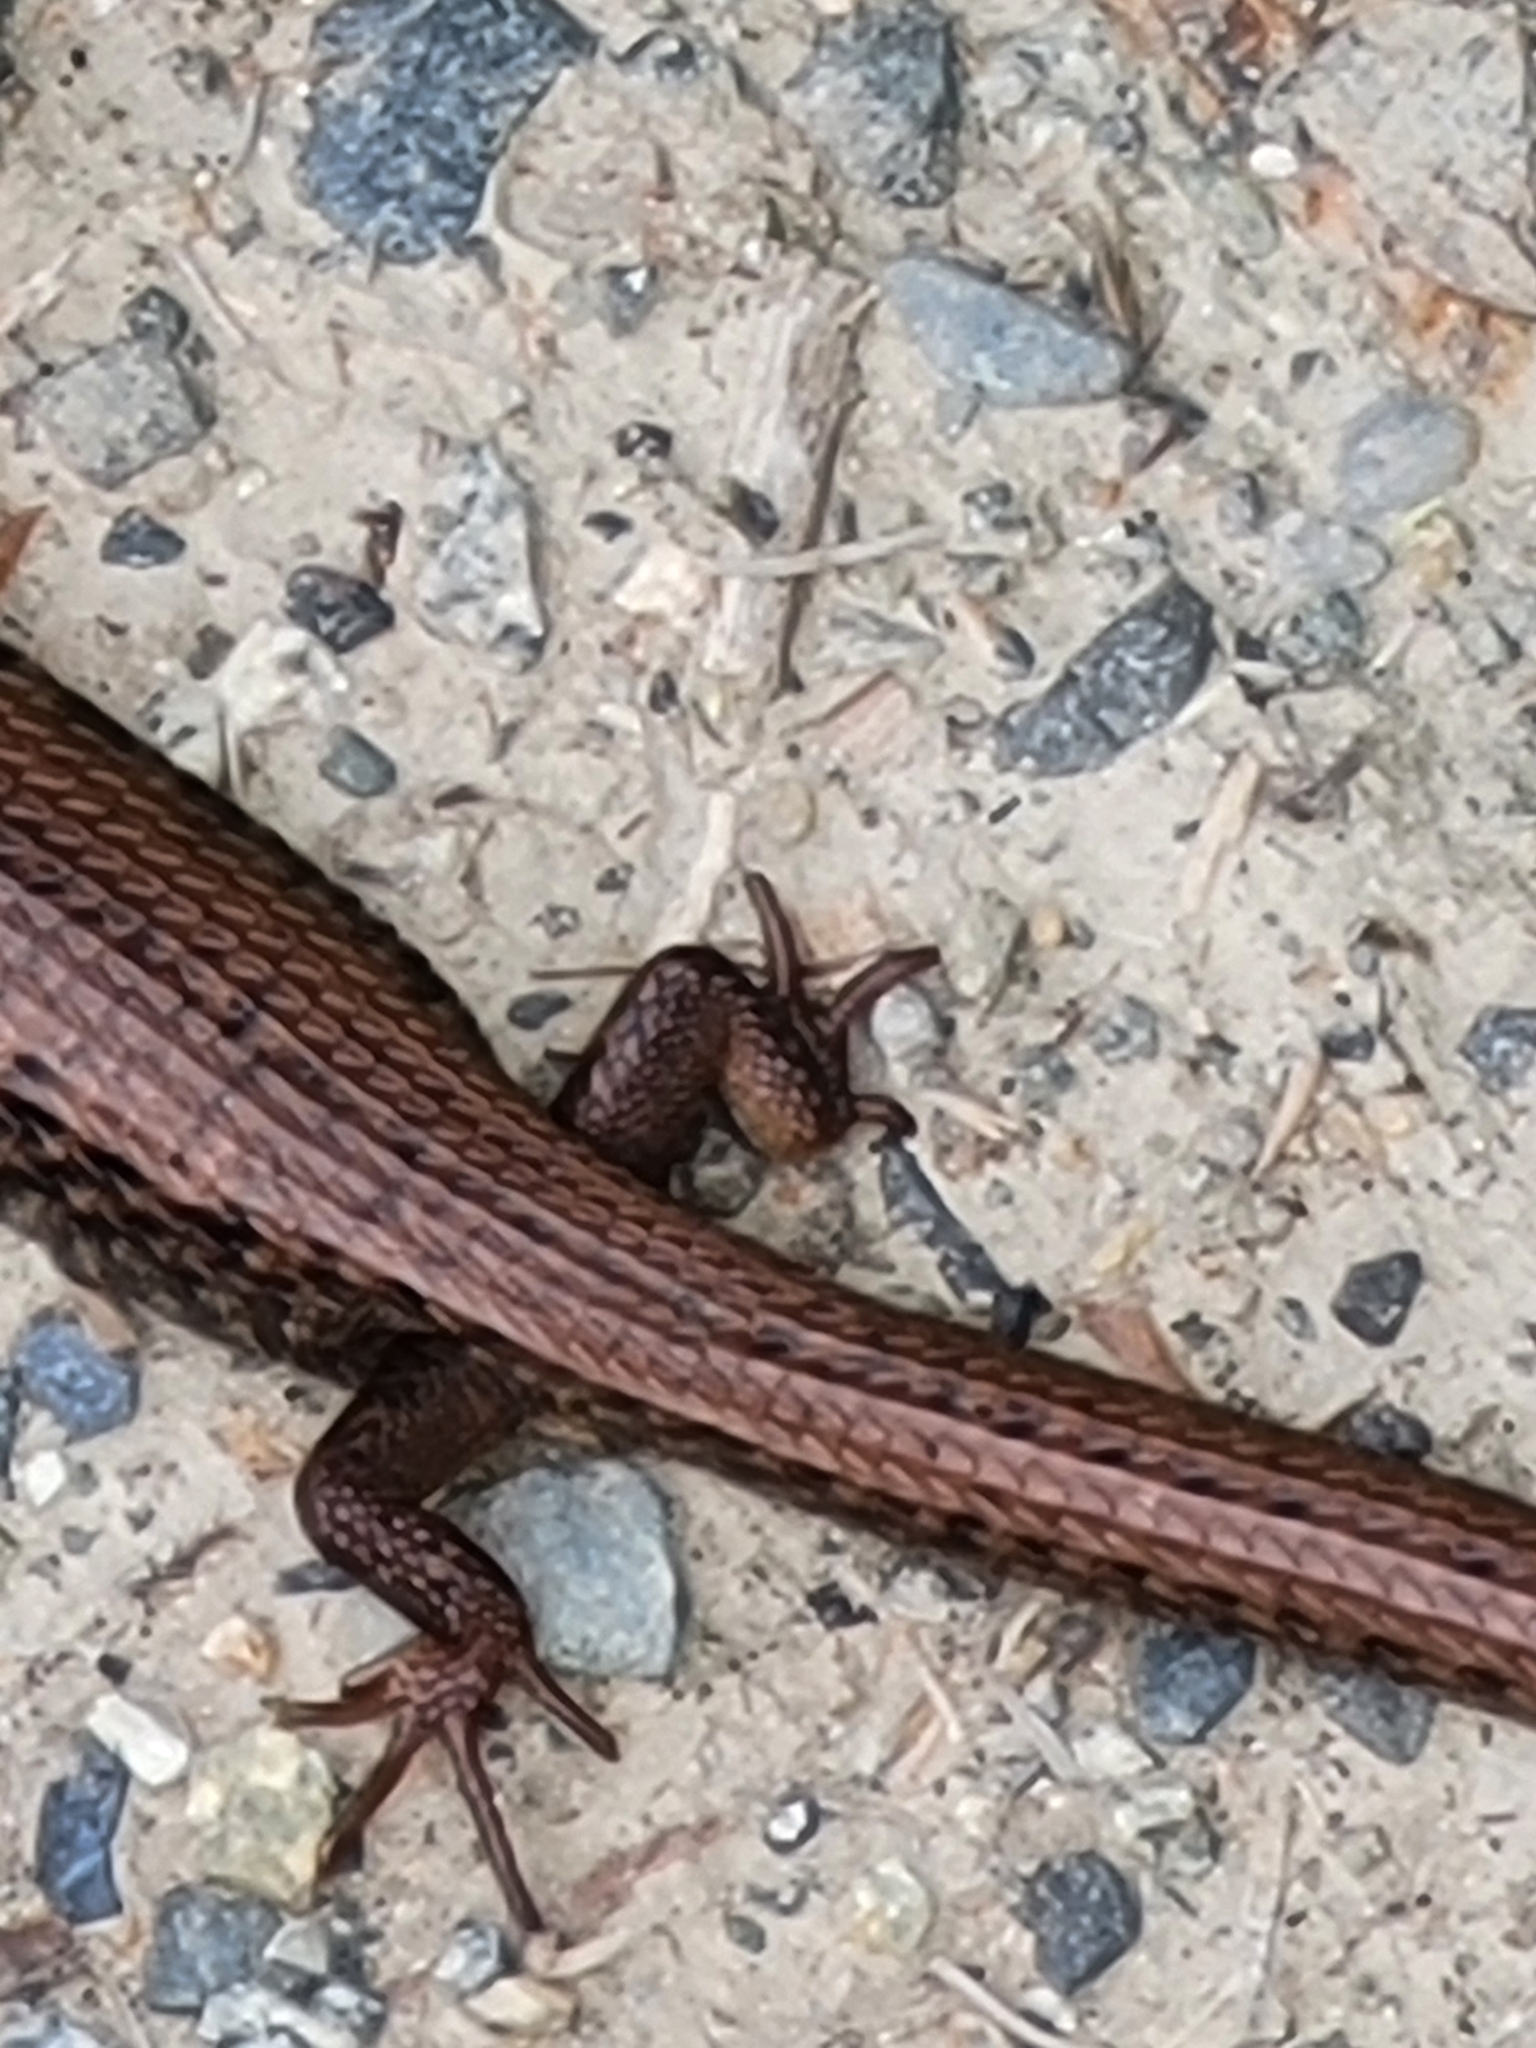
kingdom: Animalia
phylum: Chordata
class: Squamata
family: Anguidae
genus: Elgaria
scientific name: Elgaria coerulea
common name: Northern alligator lizard
